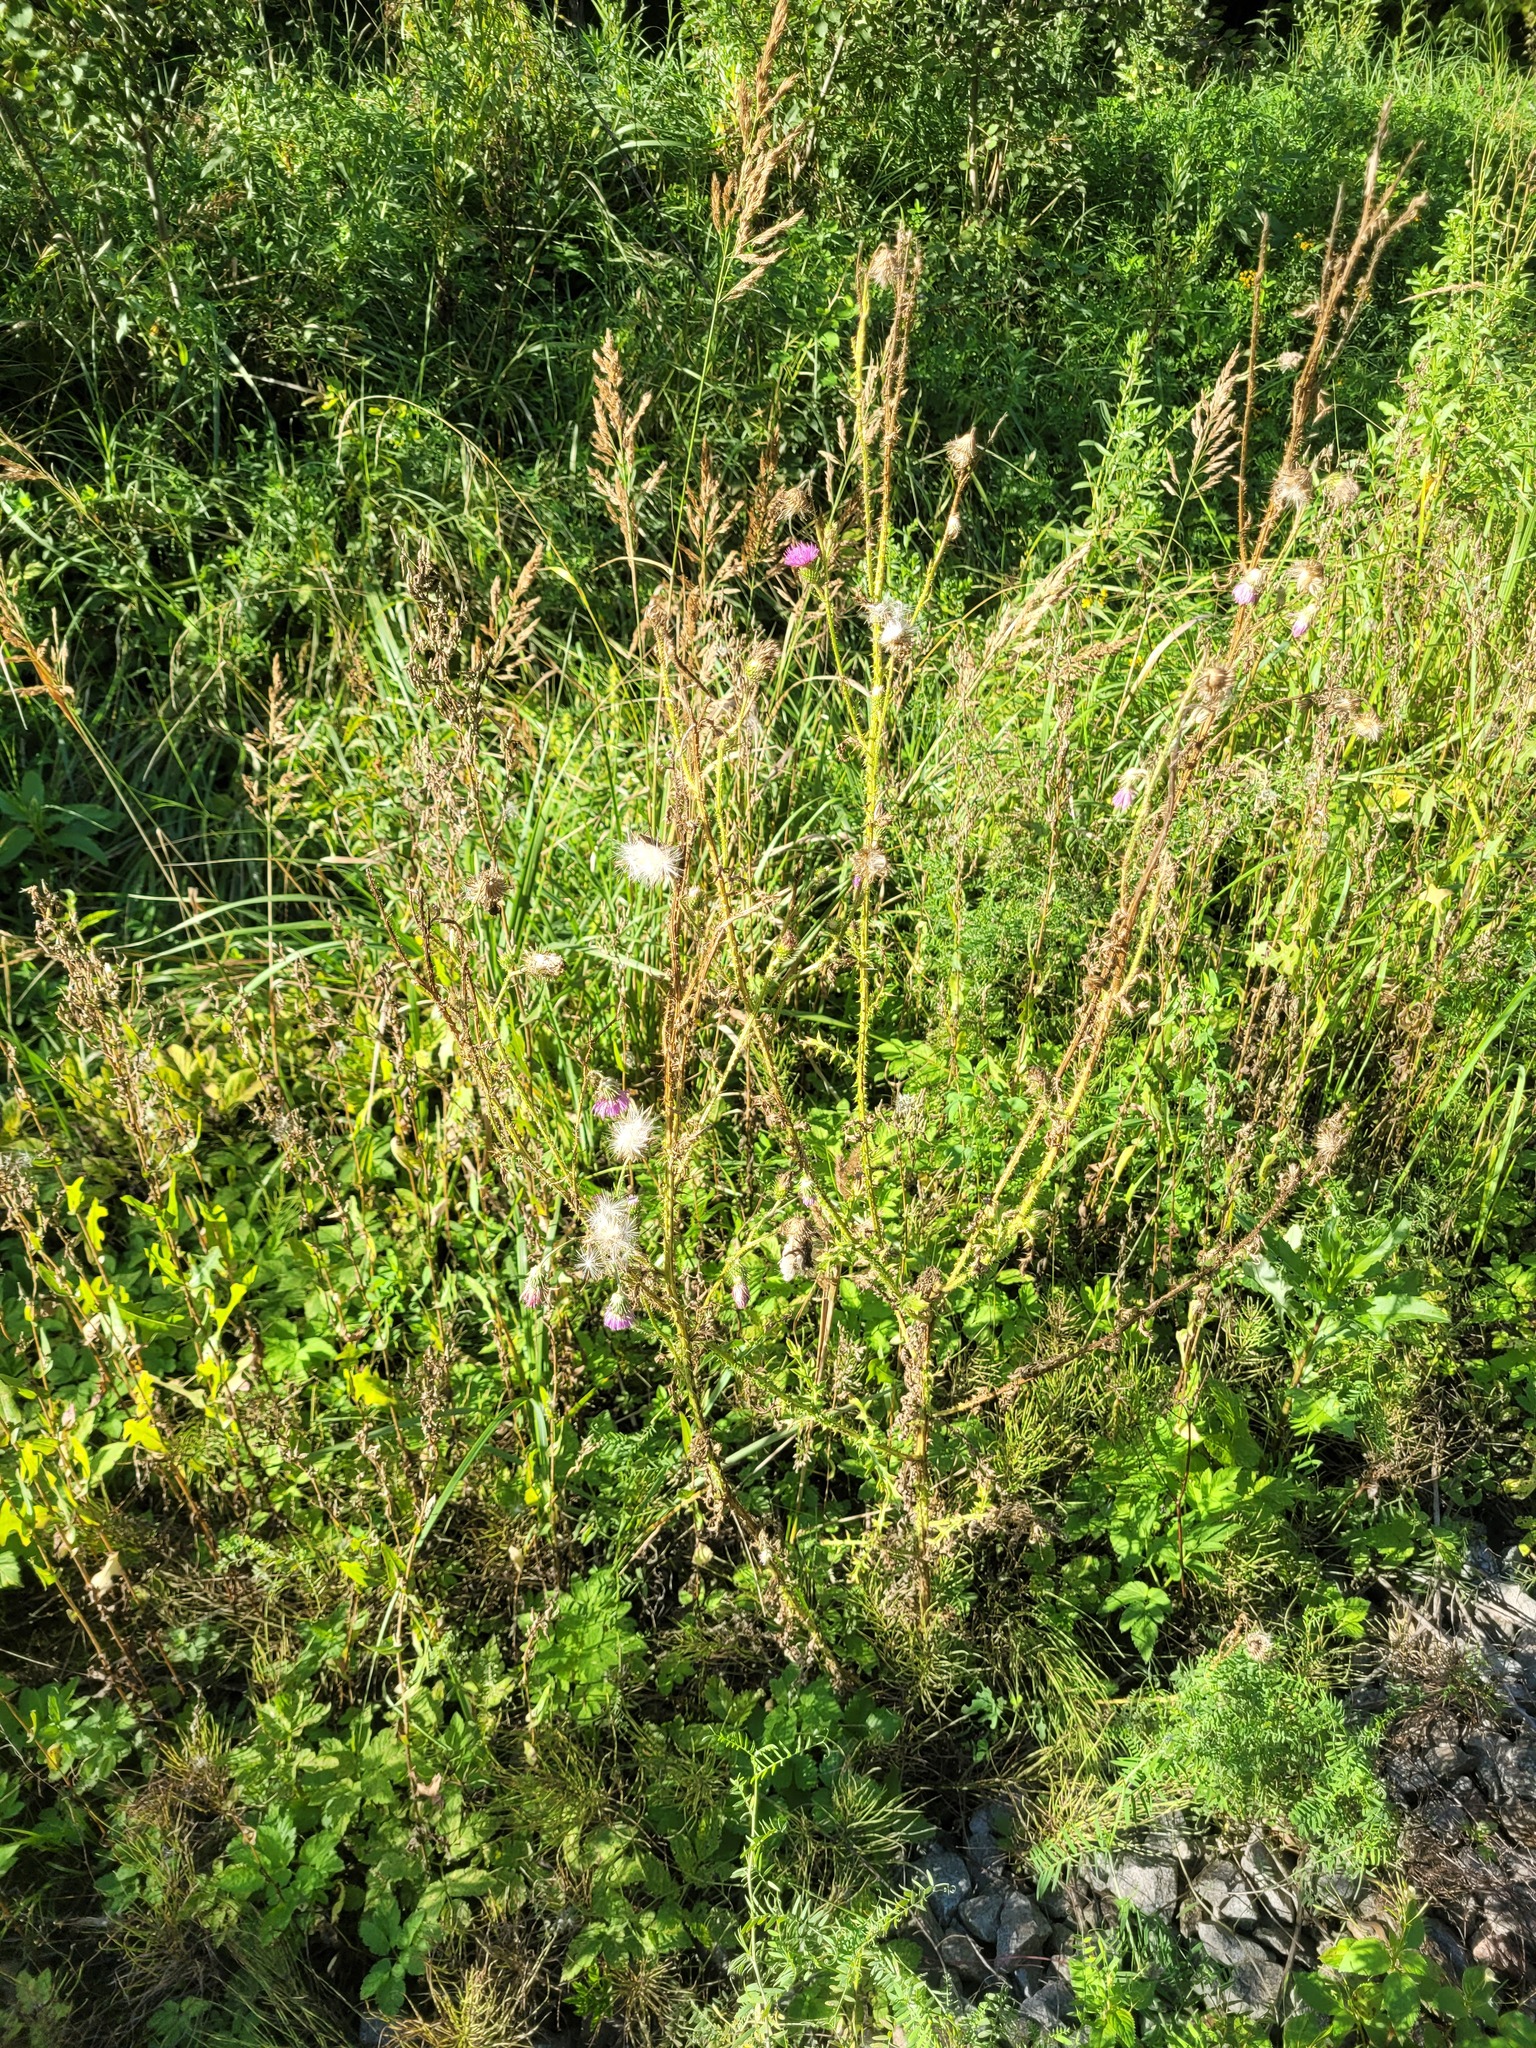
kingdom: Plantae
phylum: Tracheophyta
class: Magnoliopsida
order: Asterales
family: Asteraceae
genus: Carduus
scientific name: Carduus acanthoides
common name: Plumeless thistle
